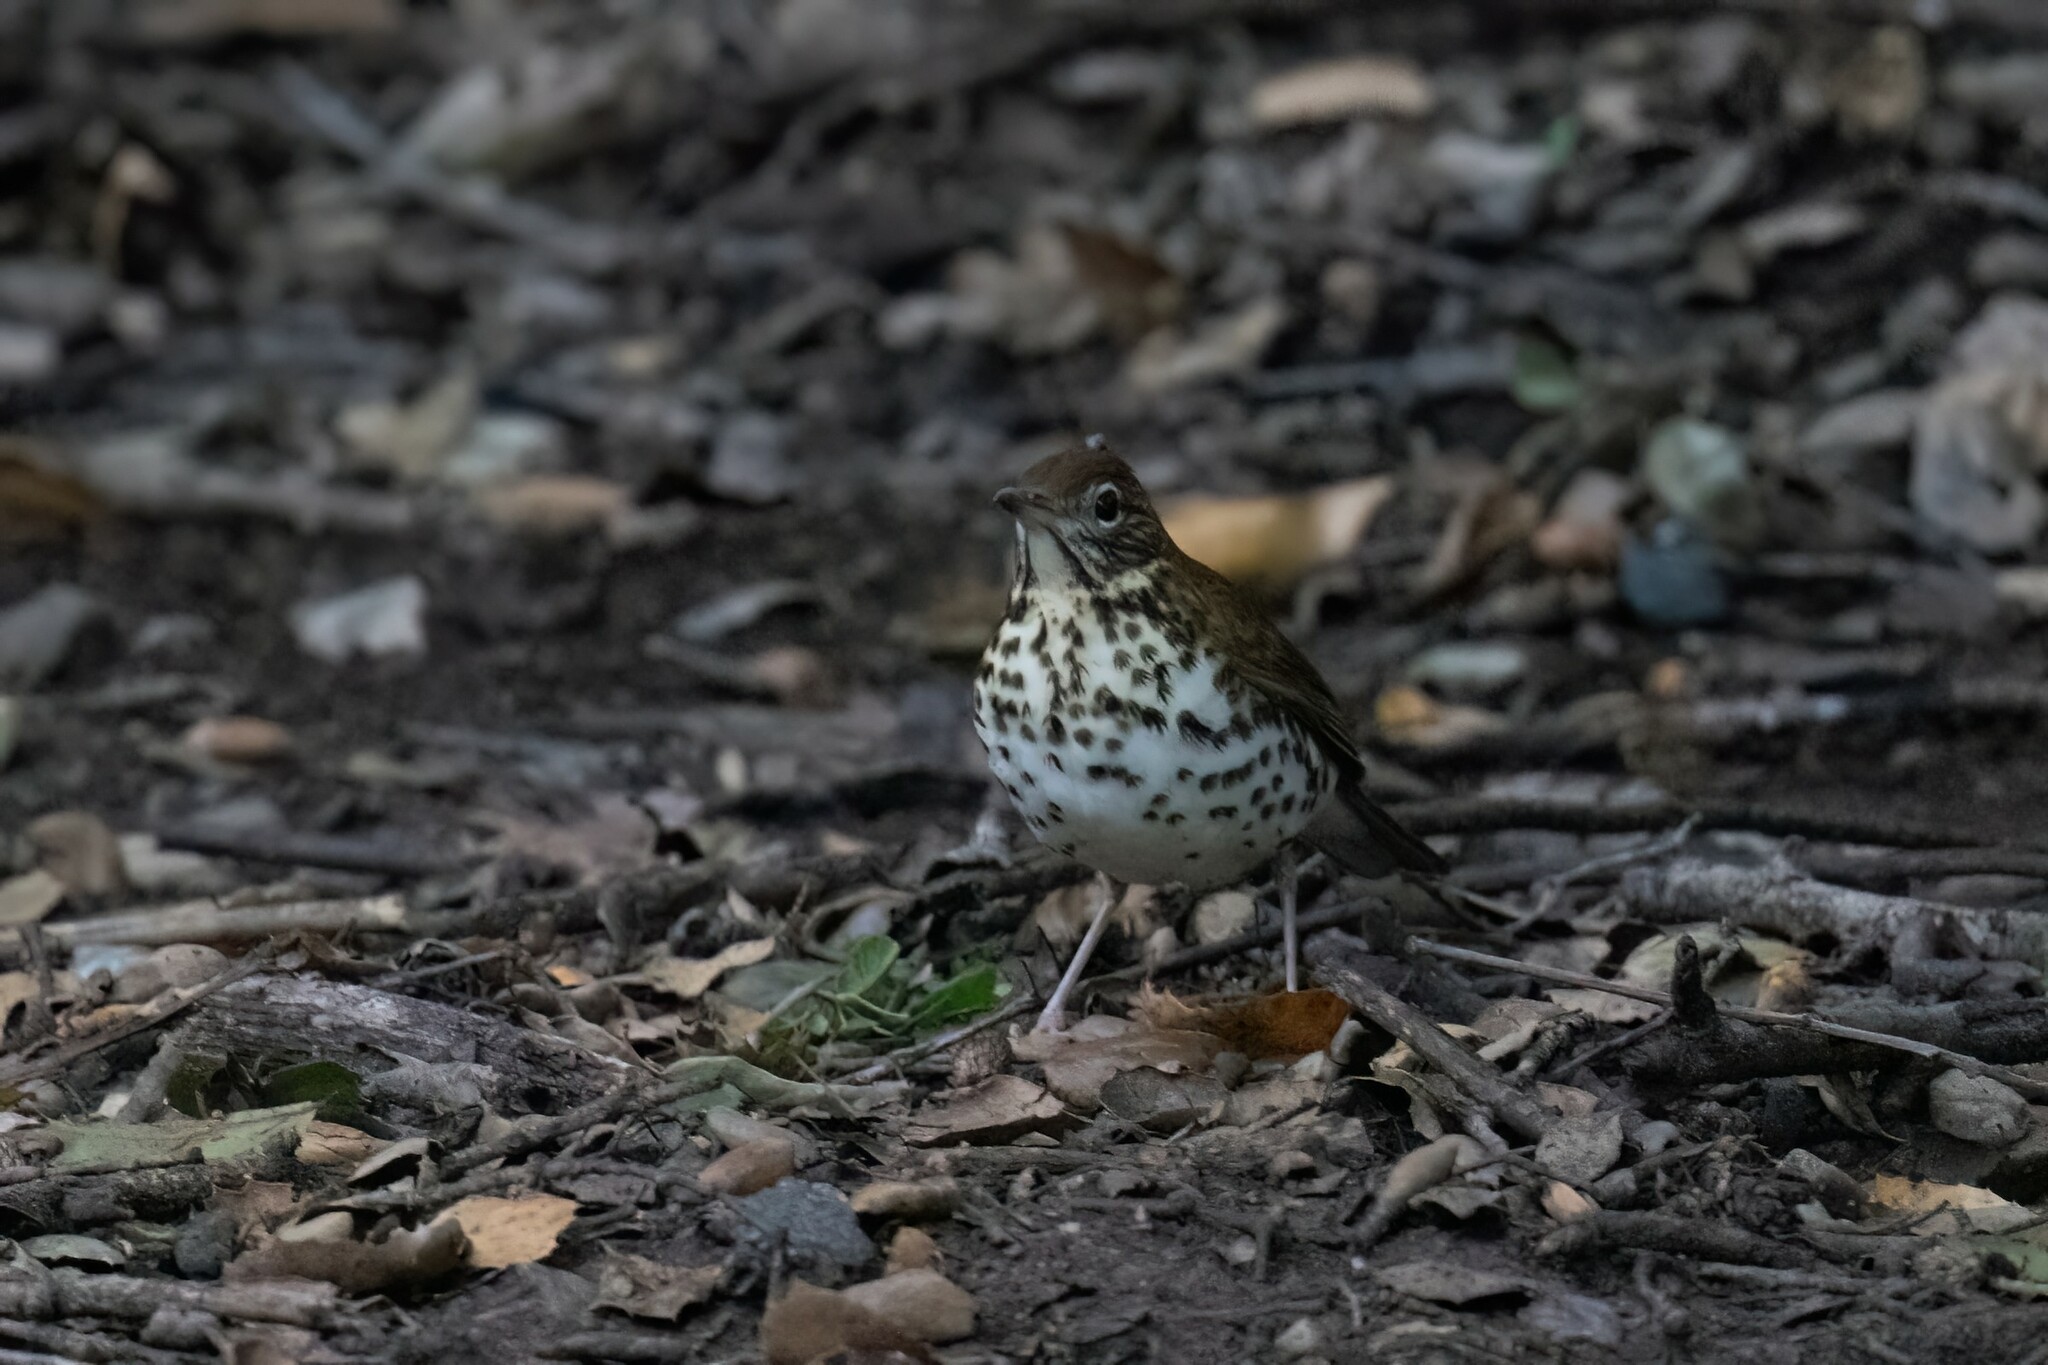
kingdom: Animalia
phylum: Chordata
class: Aves
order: Passeriformes
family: Turdidae
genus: Hylocichla
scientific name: Hylocichla mustelina
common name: Wood thrush
